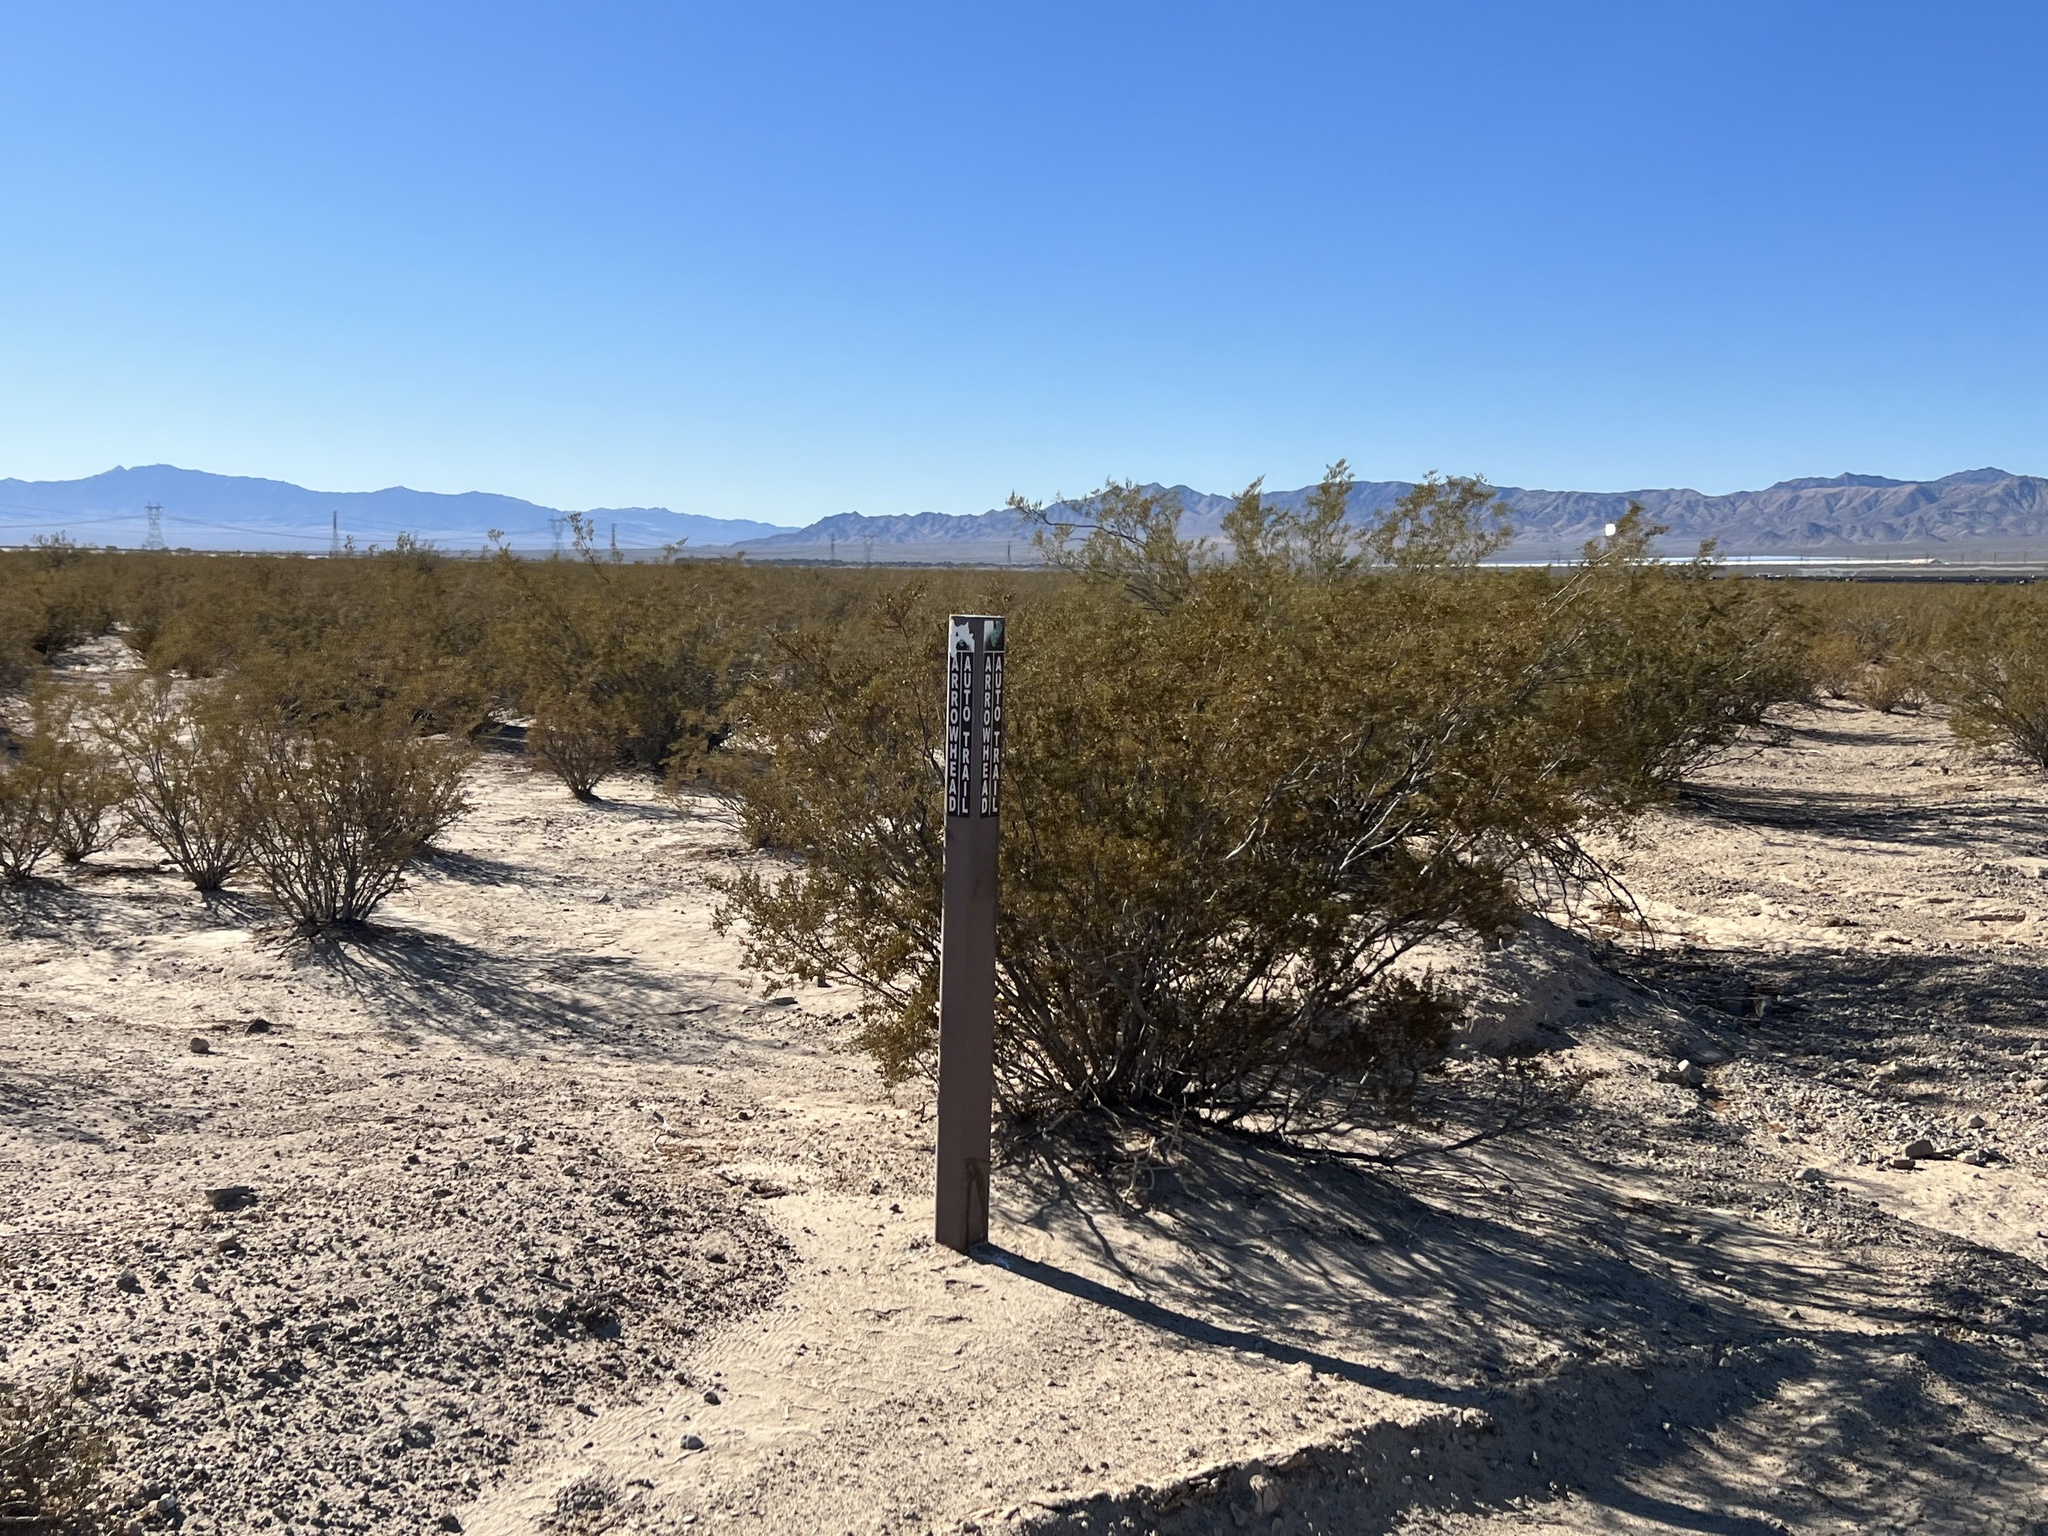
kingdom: Plantae
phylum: Tracheophyta
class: Magnoliopsida
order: Zygophyllales
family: Zygophyllaceae
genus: Larrea
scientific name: Larrea tridentata
